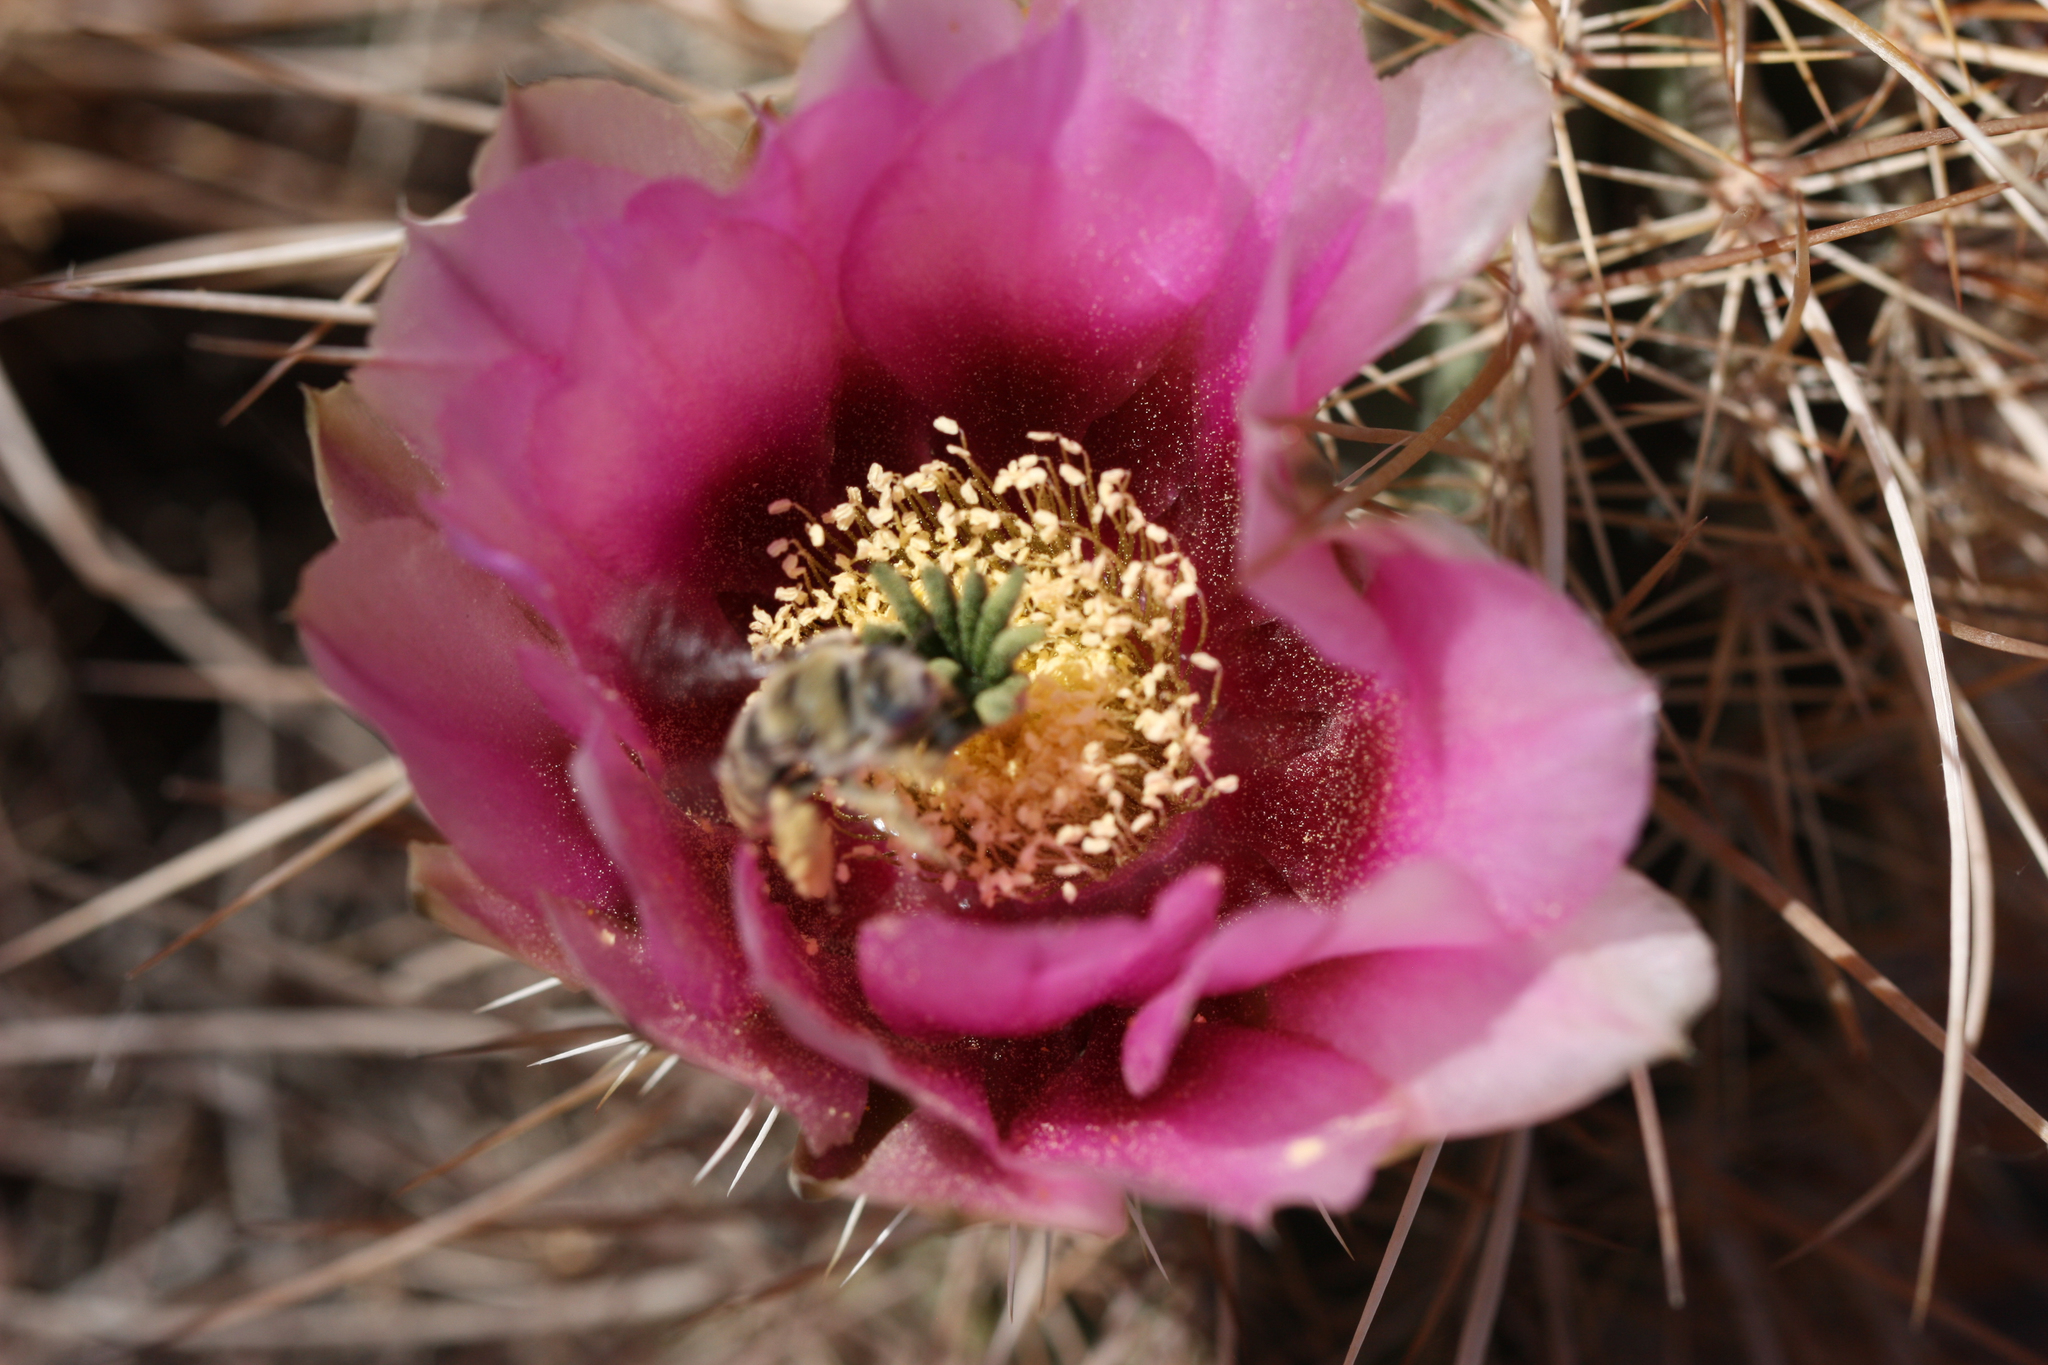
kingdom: Plantae
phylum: Tracheophyta
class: Magnoliopsida
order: Caryophyllales
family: Cactaceae
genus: Echinocereus
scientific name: Echinocereus engelmannii
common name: Engelmann's hedgehog cactus
